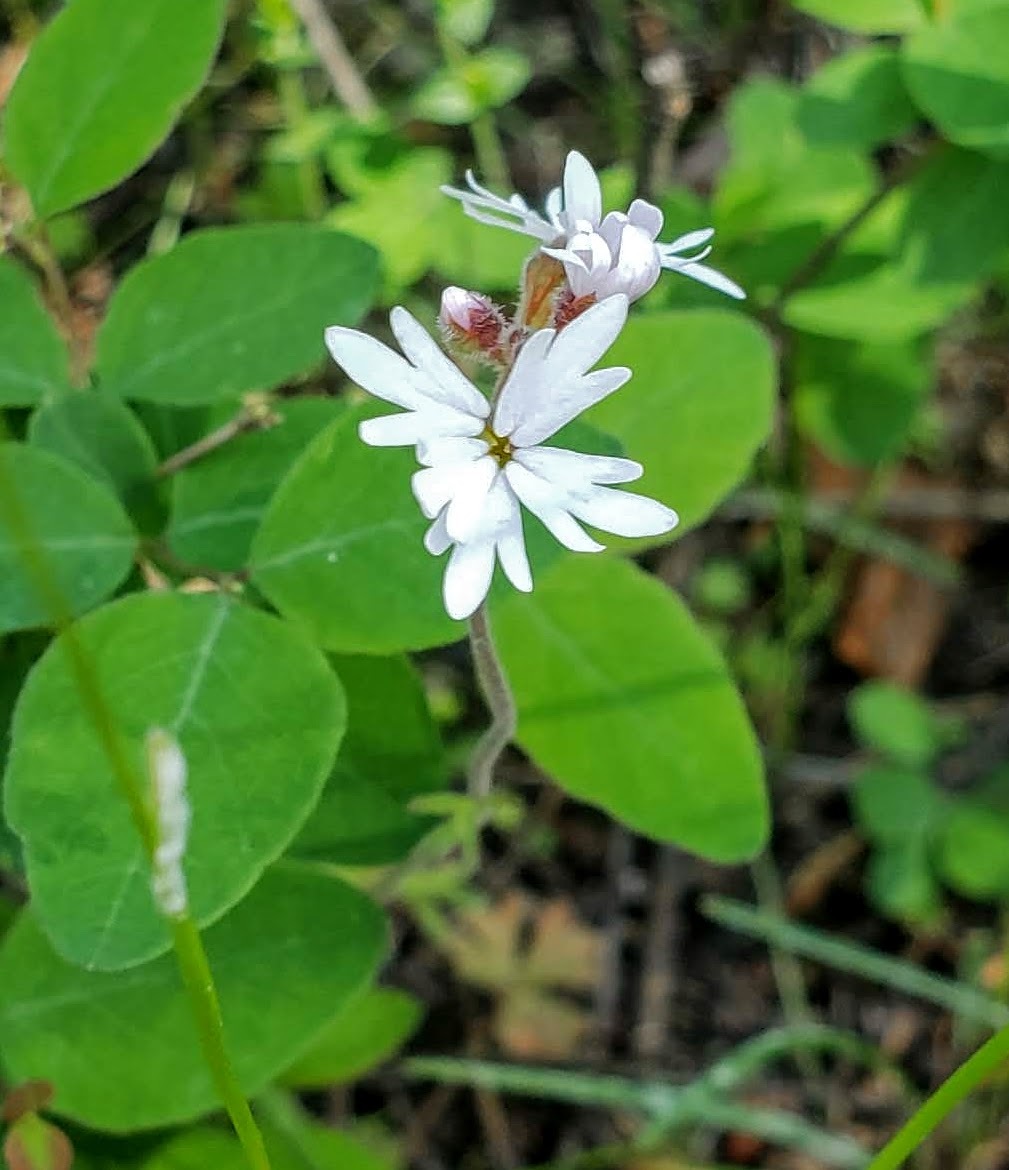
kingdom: Plantae
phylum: Tracheophyta
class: Magnoliopsida
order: Saxifragales
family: Saxifragaceae
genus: Lithophragma
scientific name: Lithophragma parviflorum
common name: Small-flowered fringe-cup
